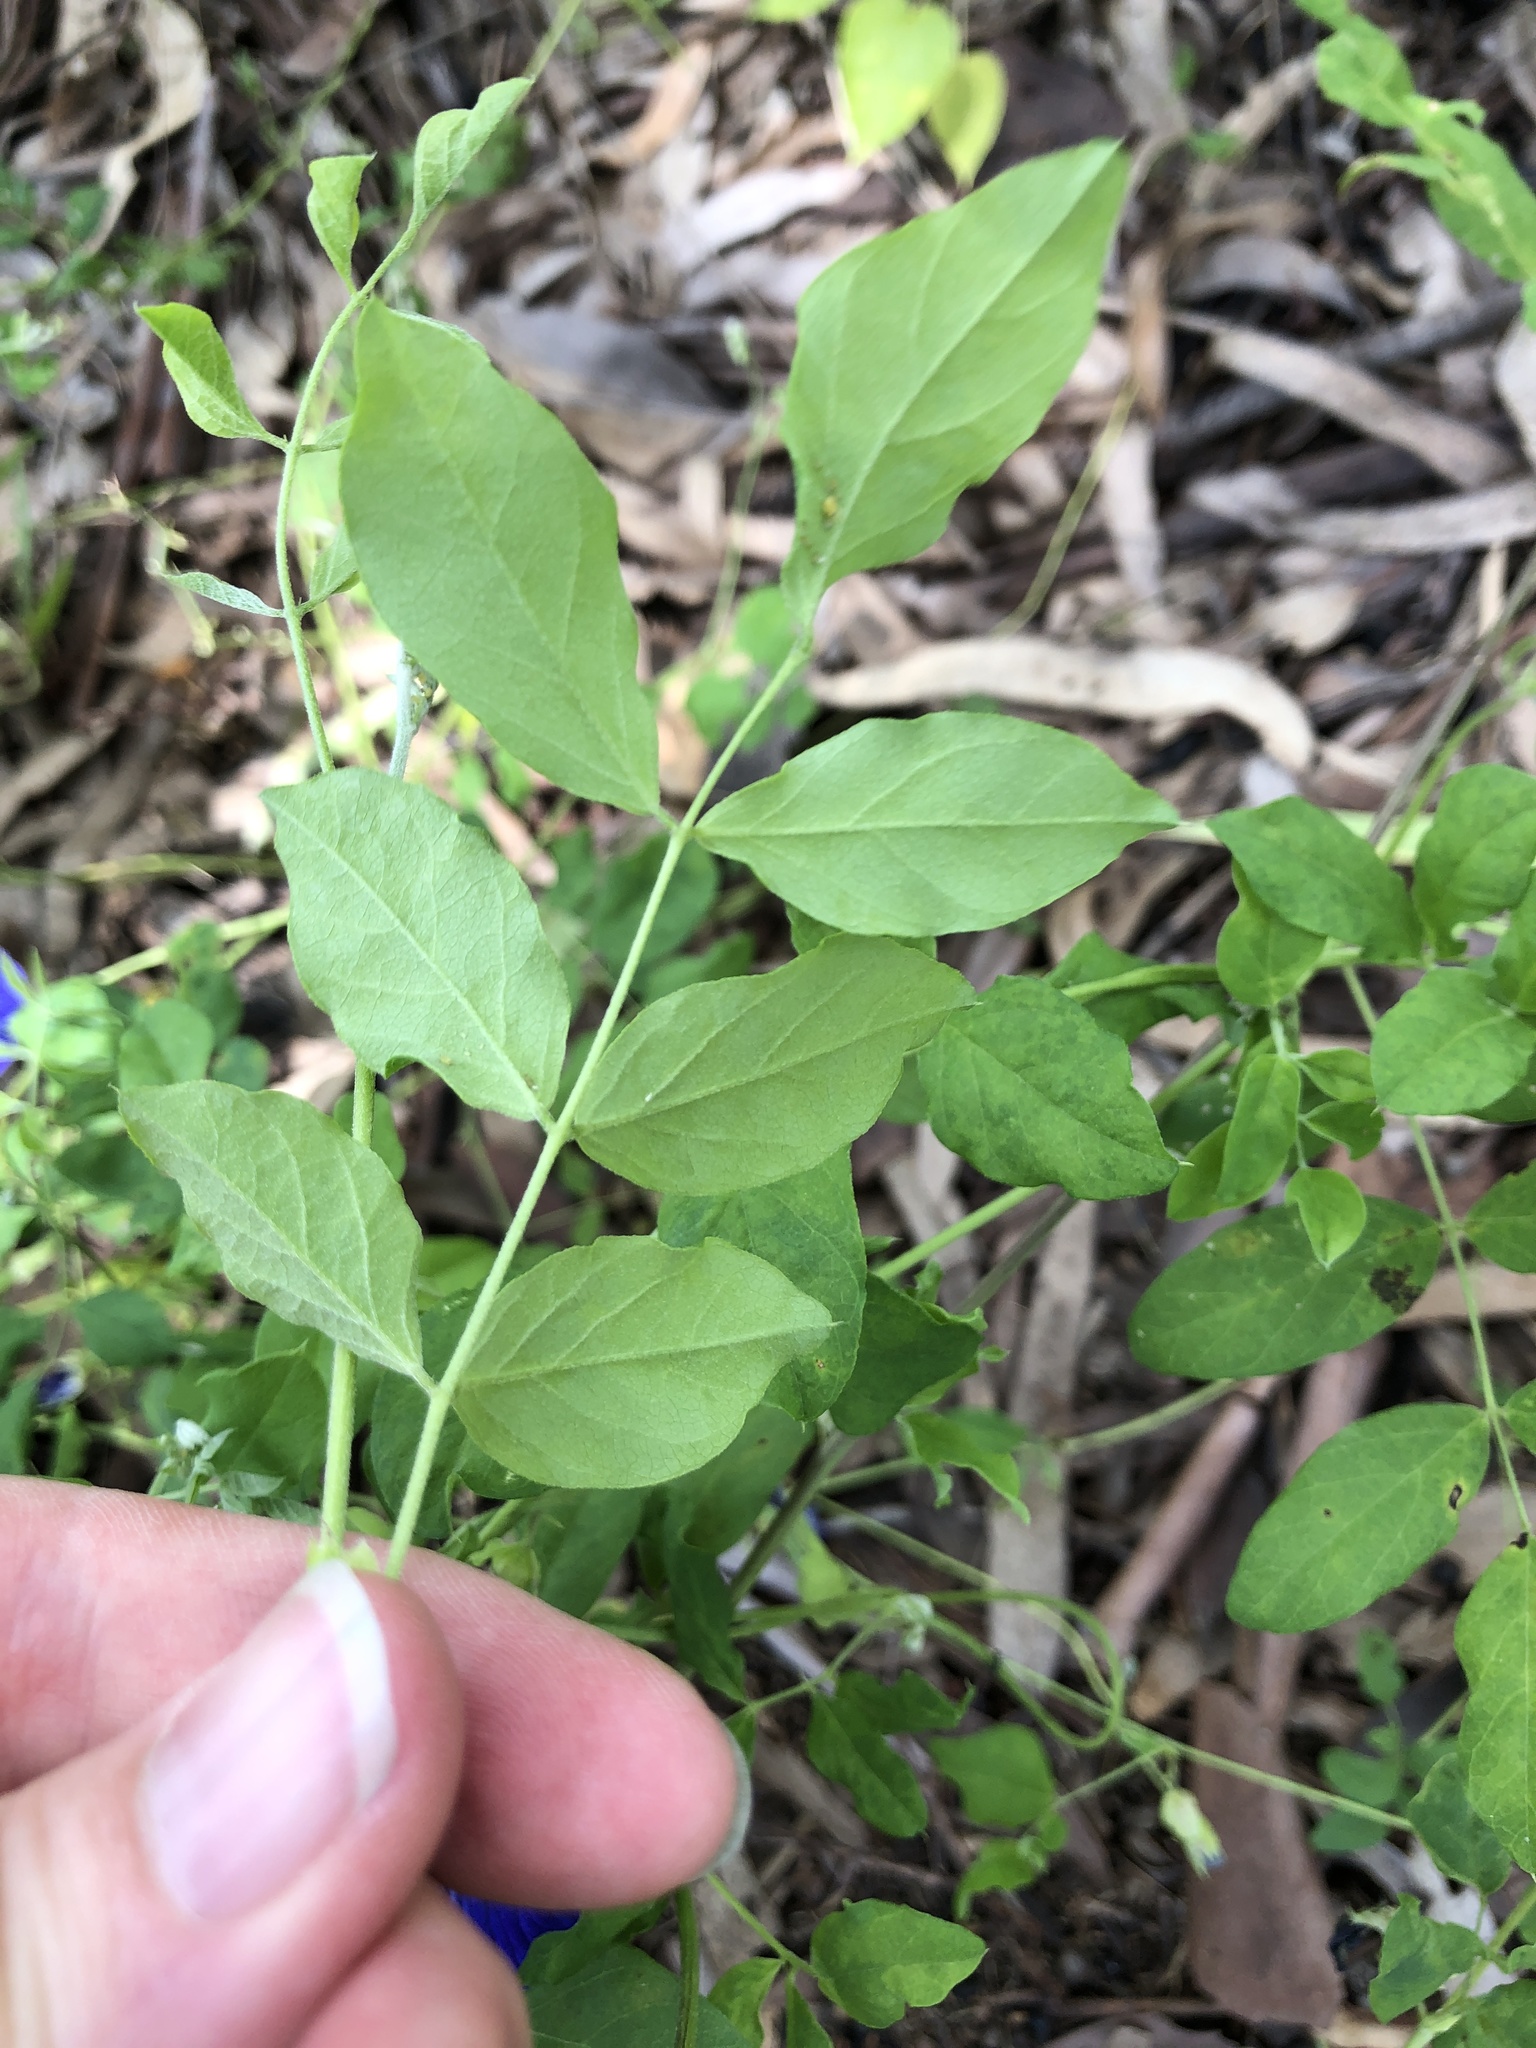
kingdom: Plantae
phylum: Tracheophyta
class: Magnoliopsida
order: Fabales
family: Fabaceae
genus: Clitoria
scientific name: Clitoria ternatea
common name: Asian pigeonwings
